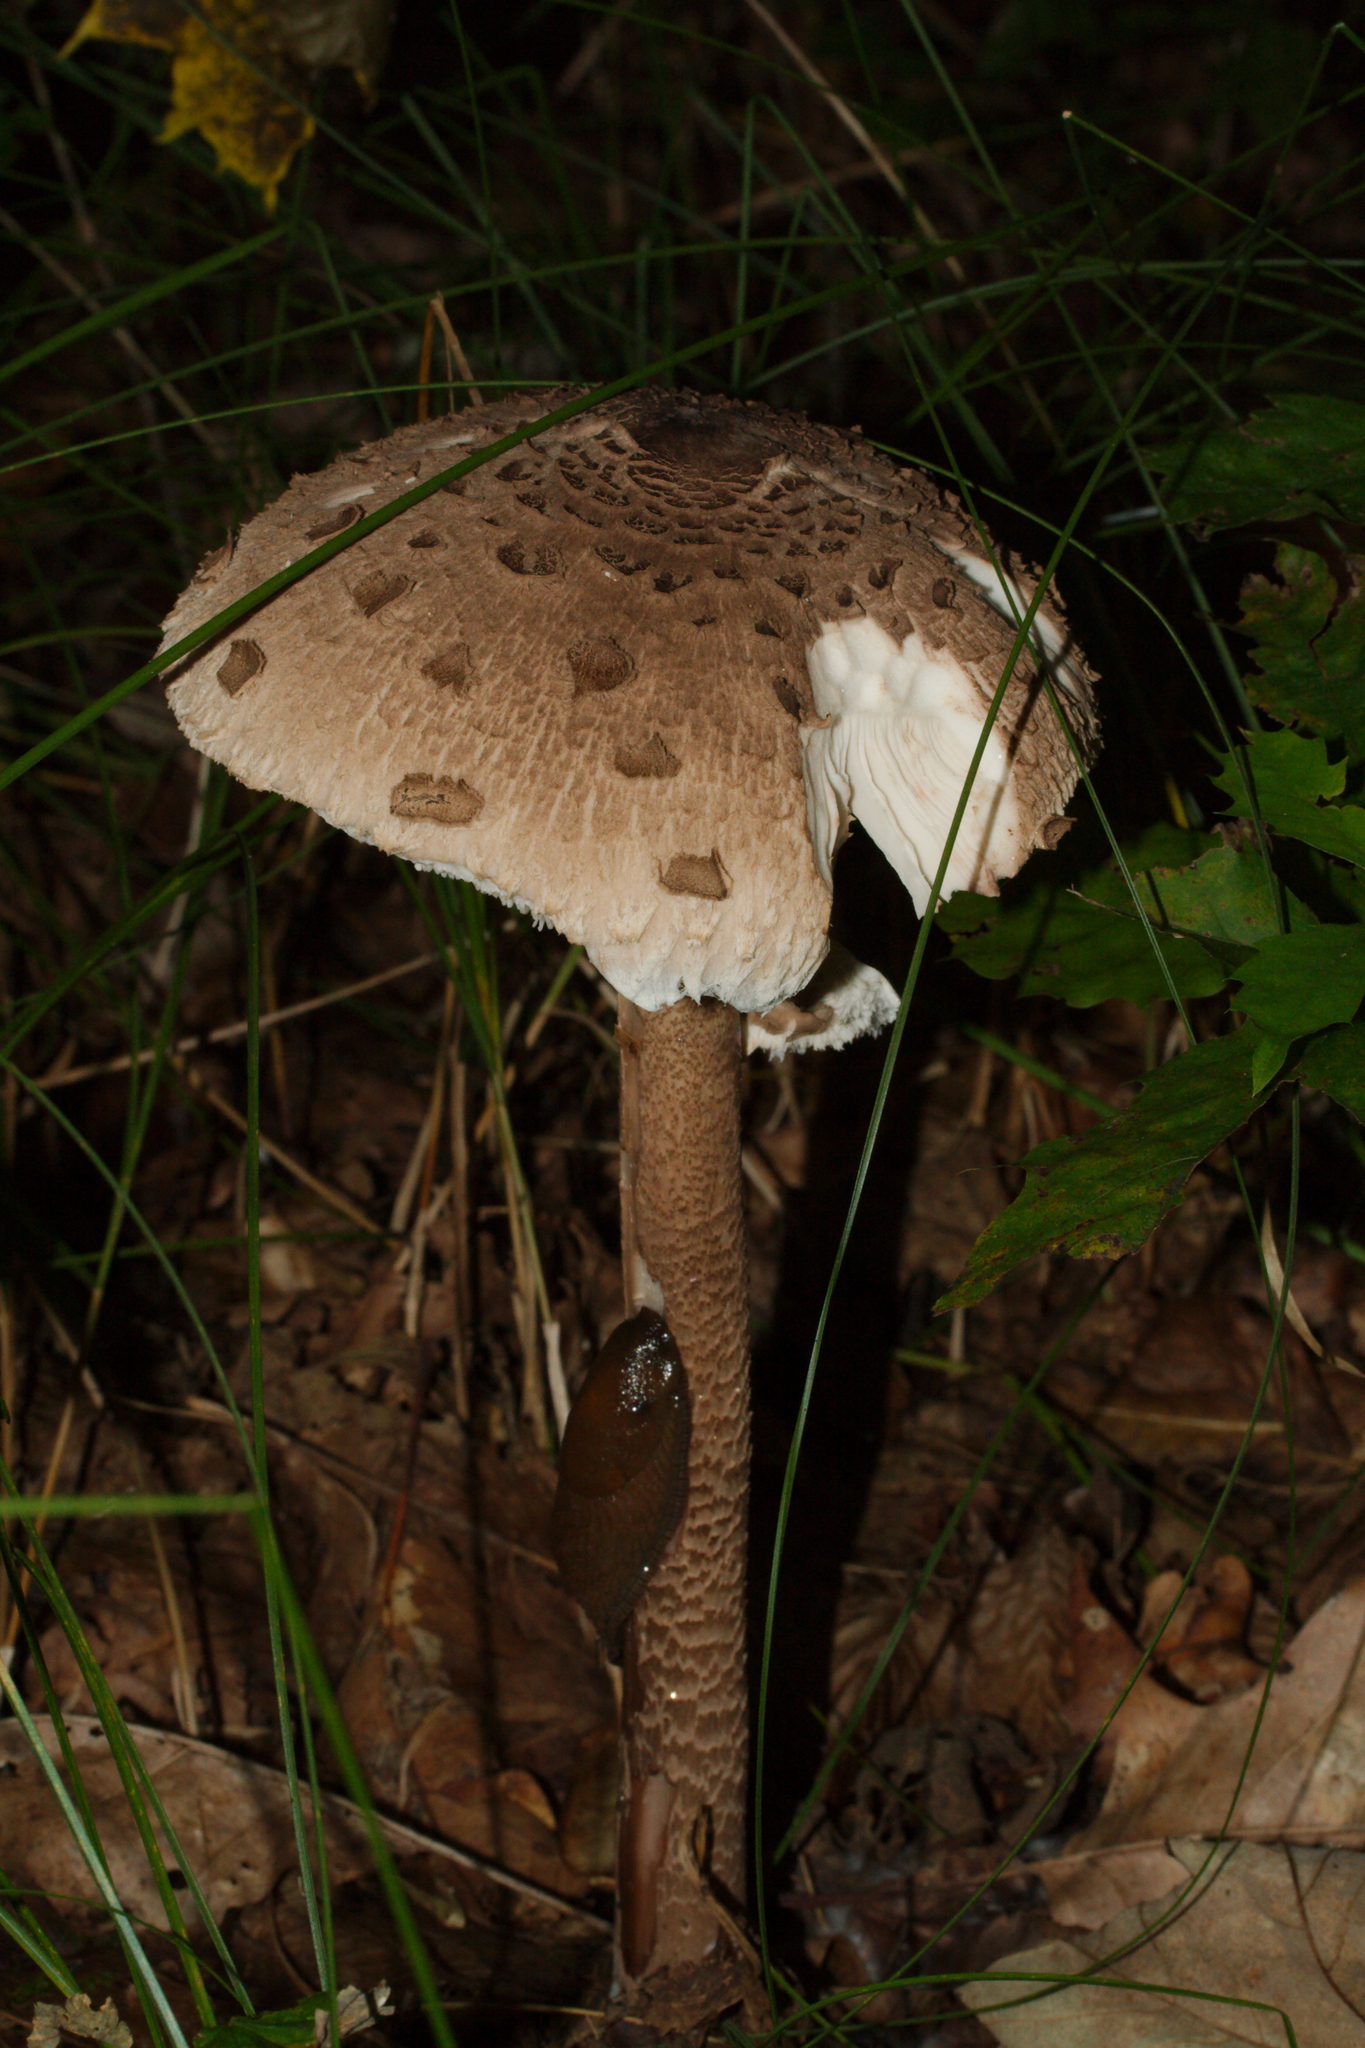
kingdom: Fungi
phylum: Basidiomycota
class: Agaricomycetes
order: Agaricales
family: Agaricaceae
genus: Macrolepiota
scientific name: Macrolepiota procera
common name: Parasol
